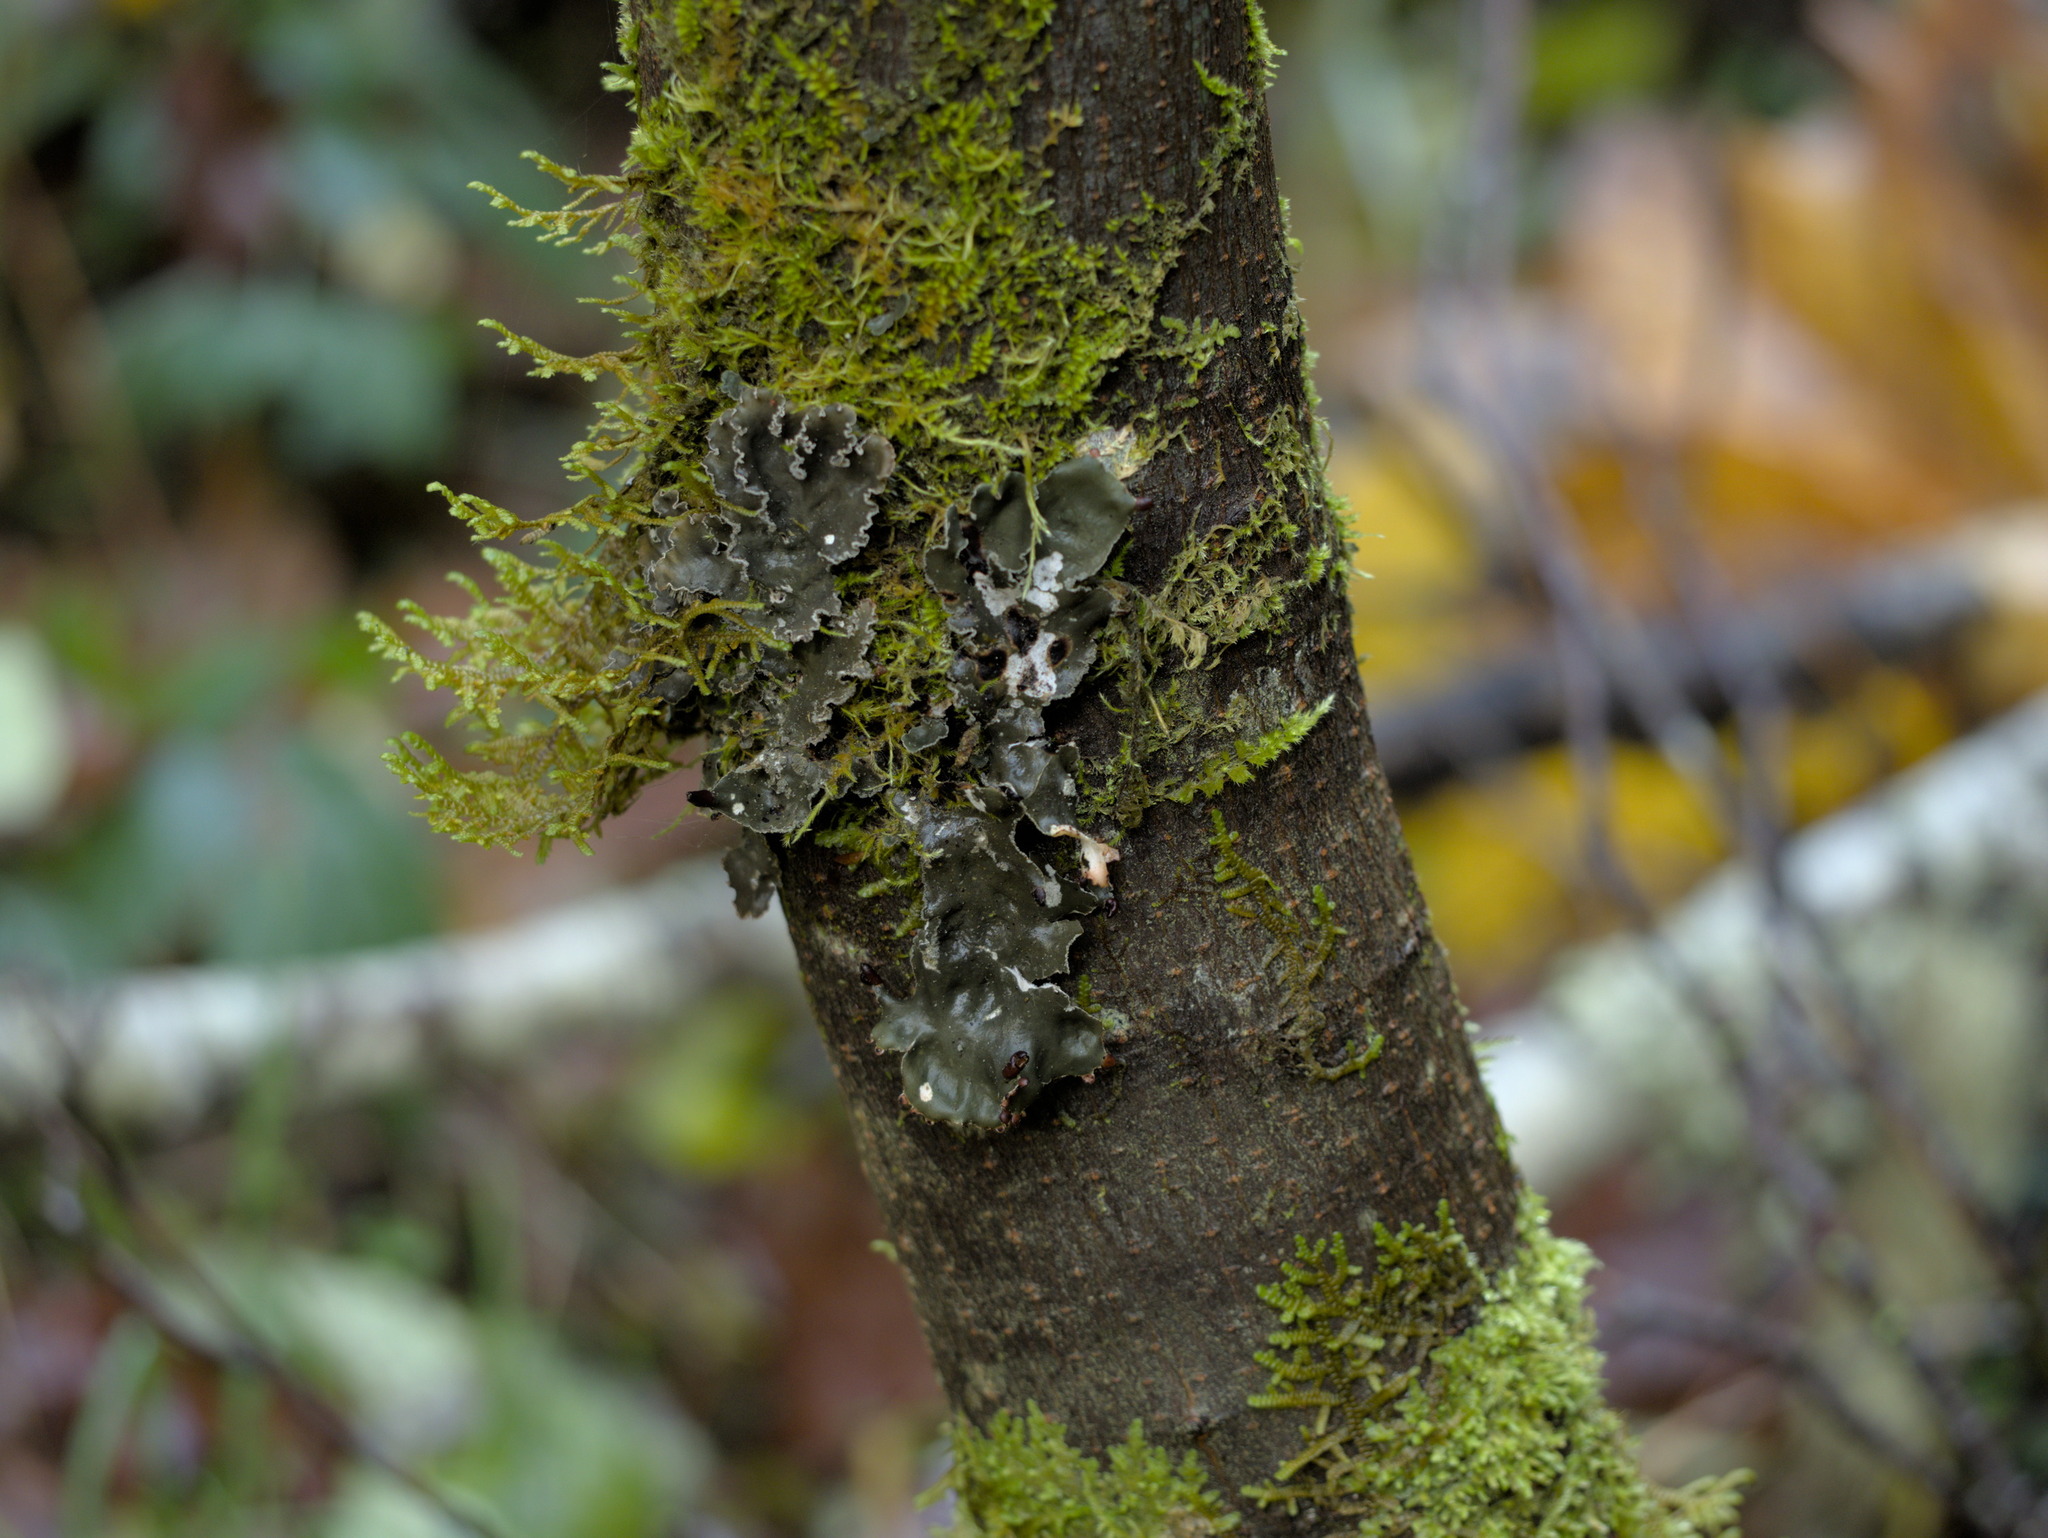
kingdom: Fungi
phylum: Ascomycota
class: Lecanoromycetes
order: Peltigerales
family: Peltigeraceae
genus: Peltigera
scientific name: Peltigera collina
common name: Gritty tree pelt lichen
